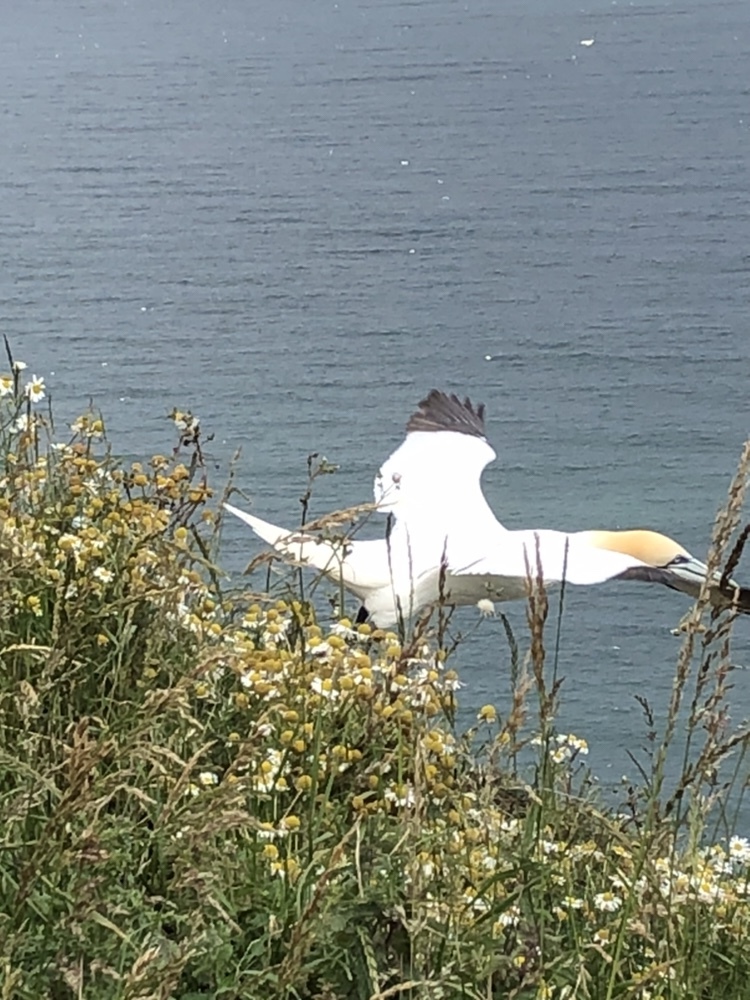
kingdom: Animalia
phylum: Chordata
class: Aves
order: Suliformes
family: Sulidae
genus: Morus
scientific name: Morus bassanus
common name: Northern gannet
